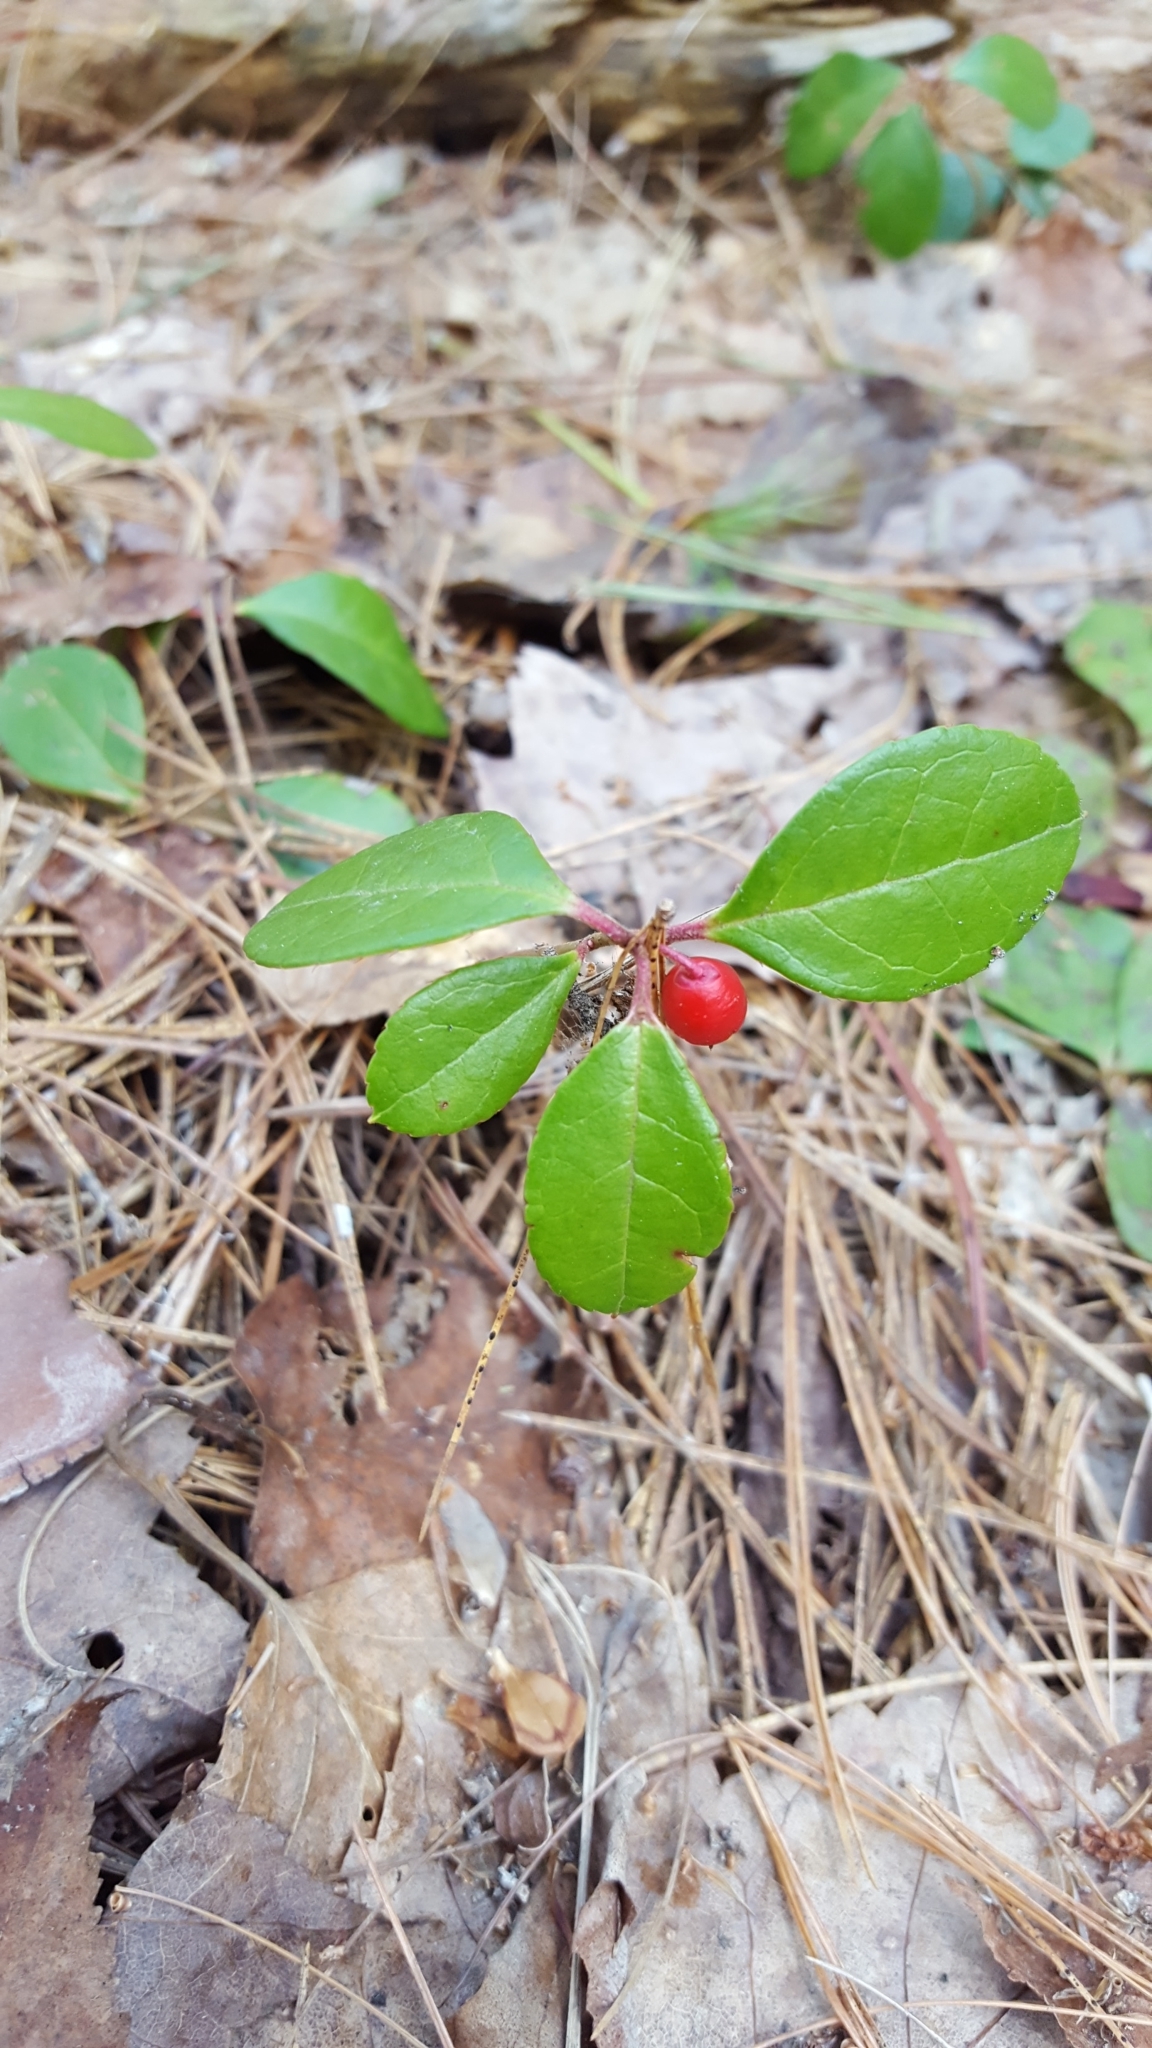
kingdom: Plantae
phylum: Tracheophyta
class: Magnoliopsida
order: Ericales
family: Ericaceae
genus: Gaultheria
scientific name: Gaultheria procumbens
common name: Checkerberry
